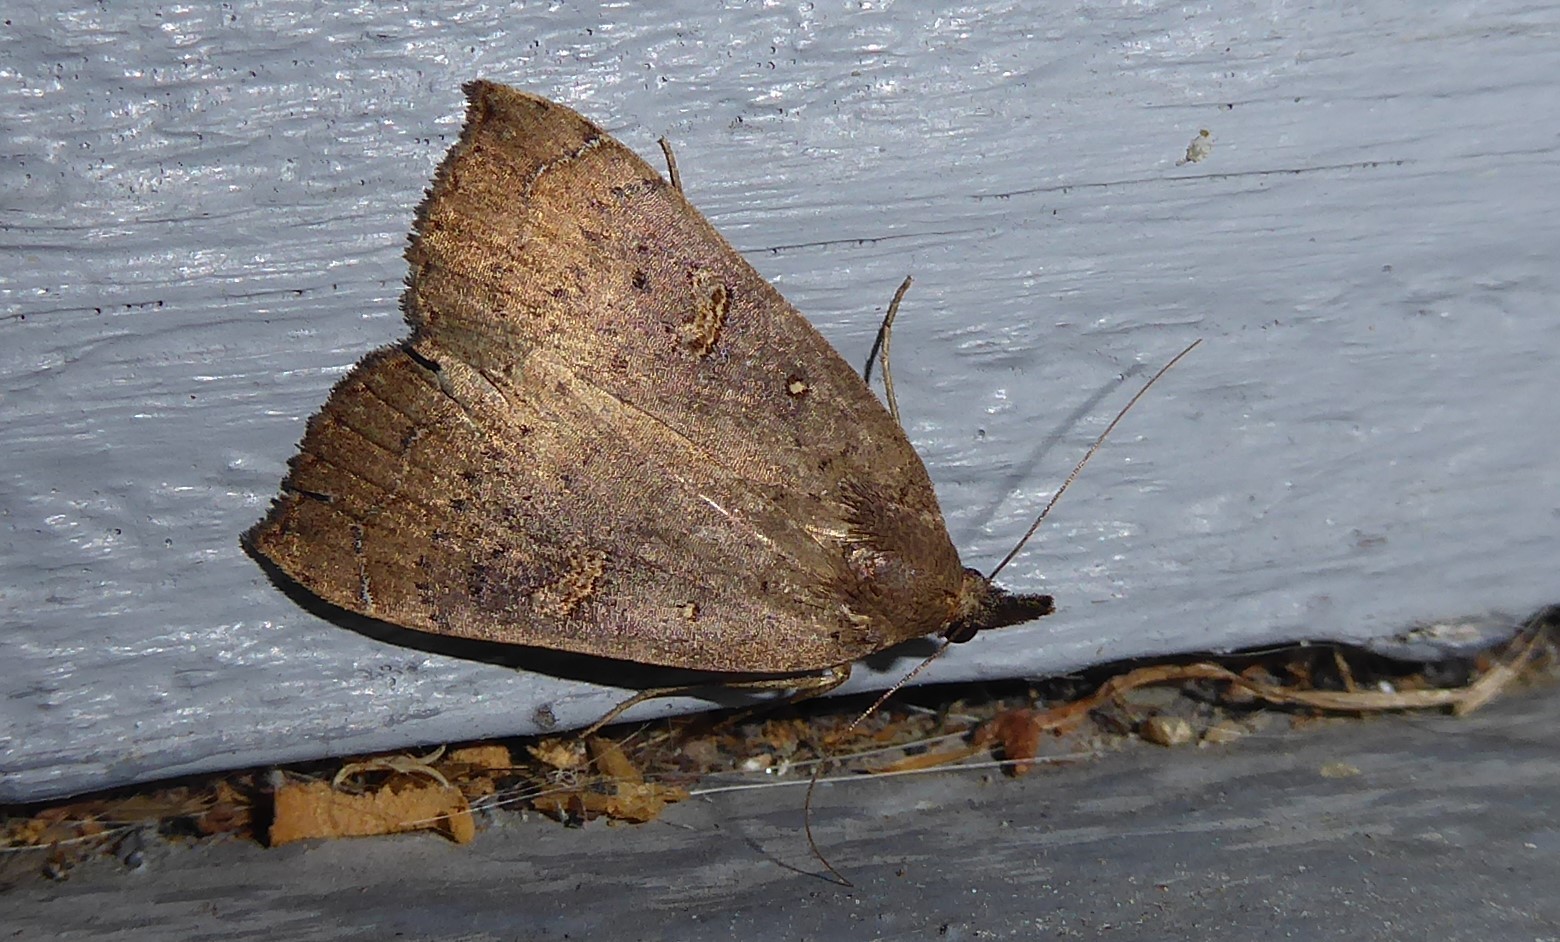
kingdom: Animalia
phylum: Arthropoda
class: Insecta
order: Lepidoptera
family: Erebidae
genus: Rhapsa
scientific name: Rhapsa scotosialis
